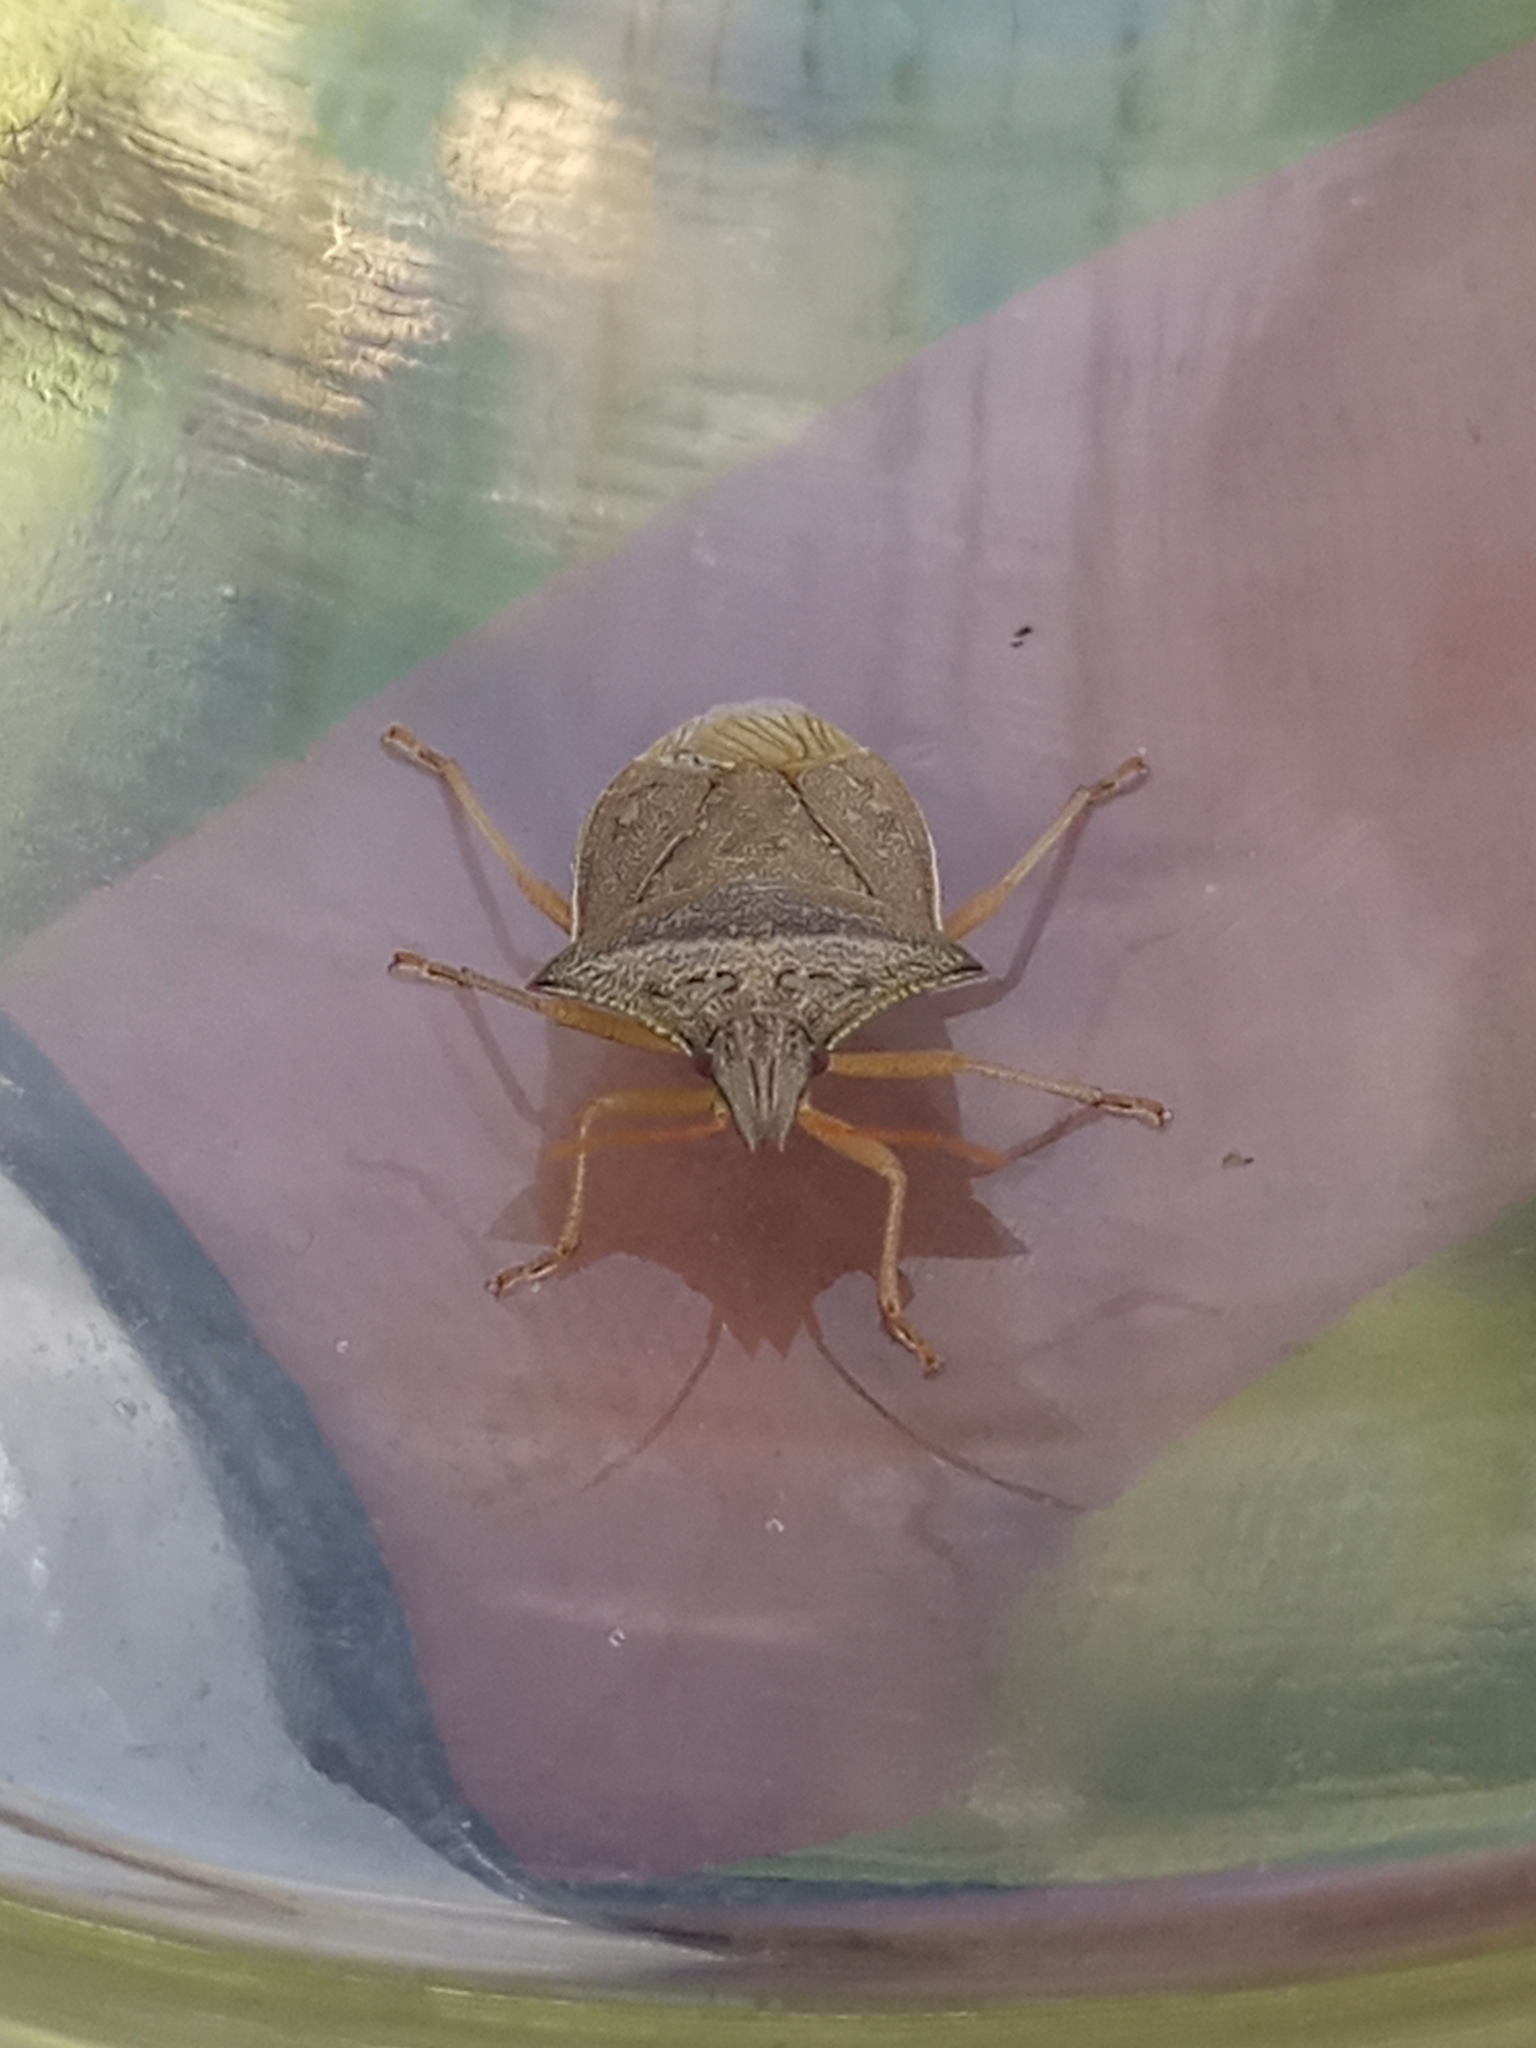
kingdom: Animalia
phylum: Arthropoda
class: Insecta
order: Hemiptera
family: Pentatomidae
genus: Diceraeus
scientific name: Diceraeus furcatus
